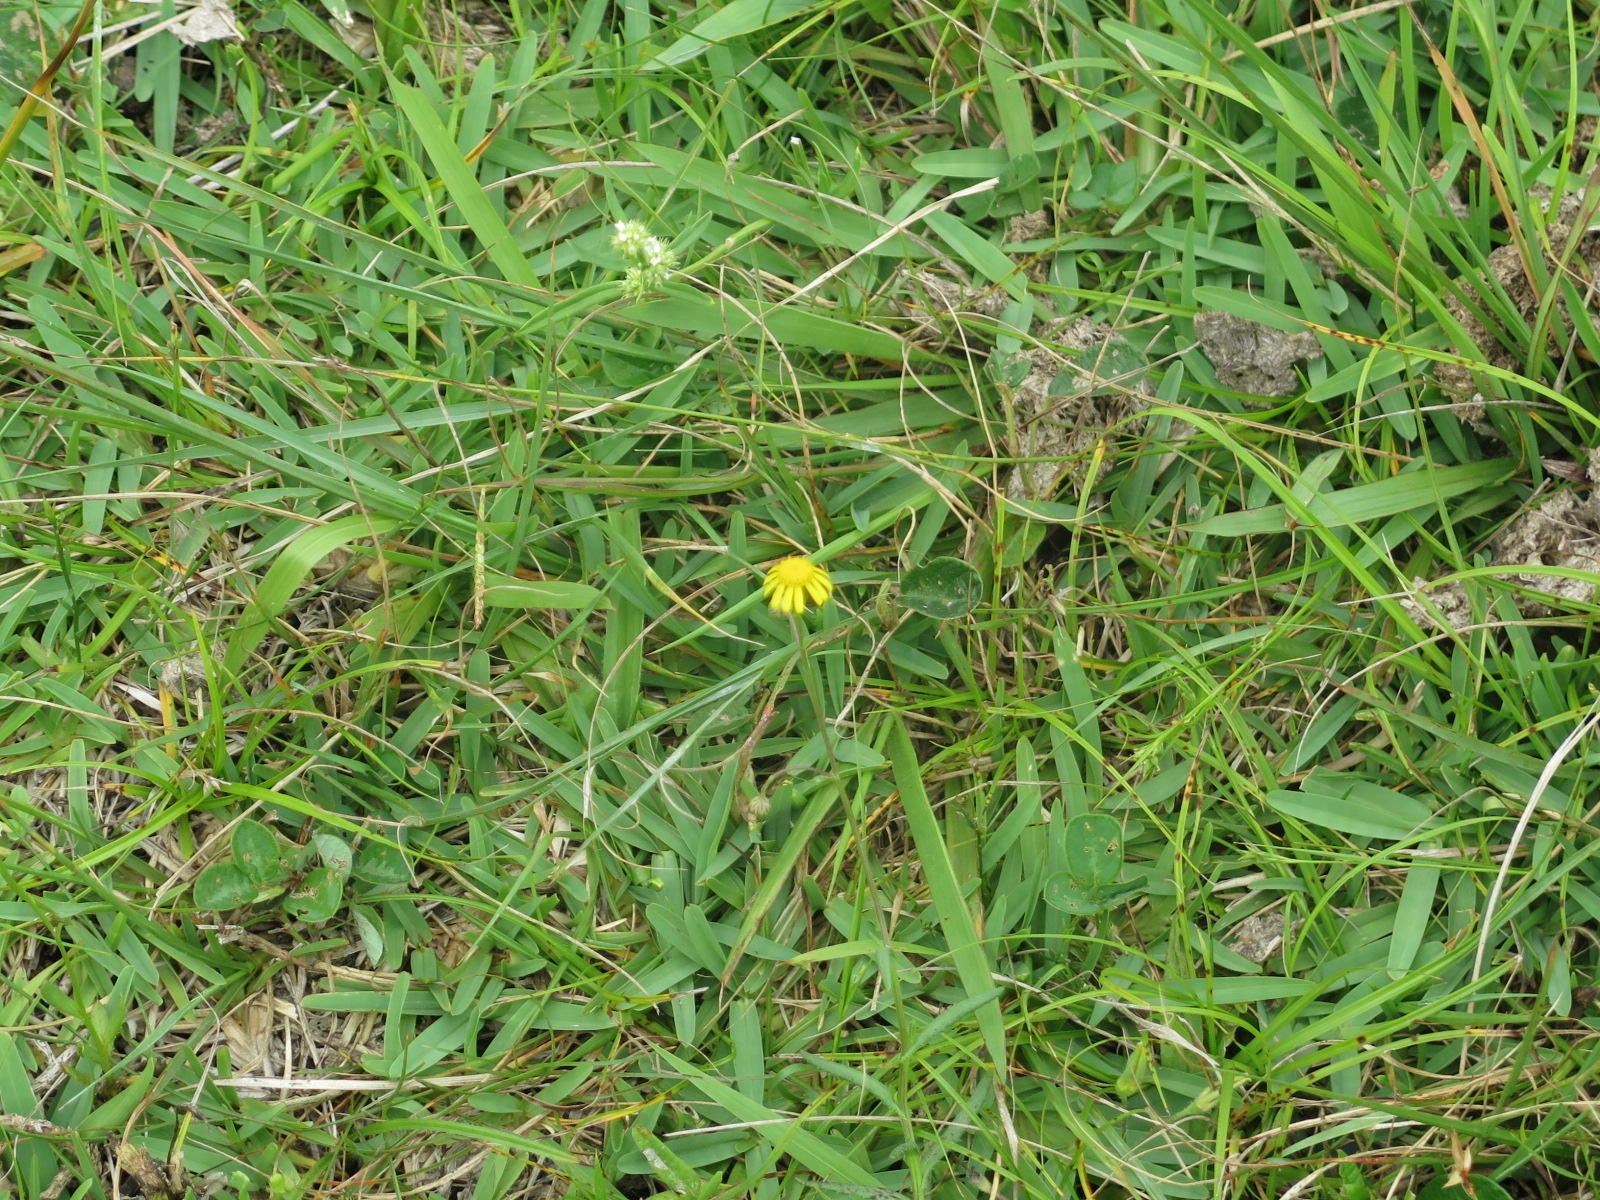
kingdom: Plantae
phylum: Tracheophyta
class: Liliopsida
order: Poales
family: Poaceae
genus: Stenotaphrum
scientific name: Stenotaphrum secundatum
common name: St. augustine grass
